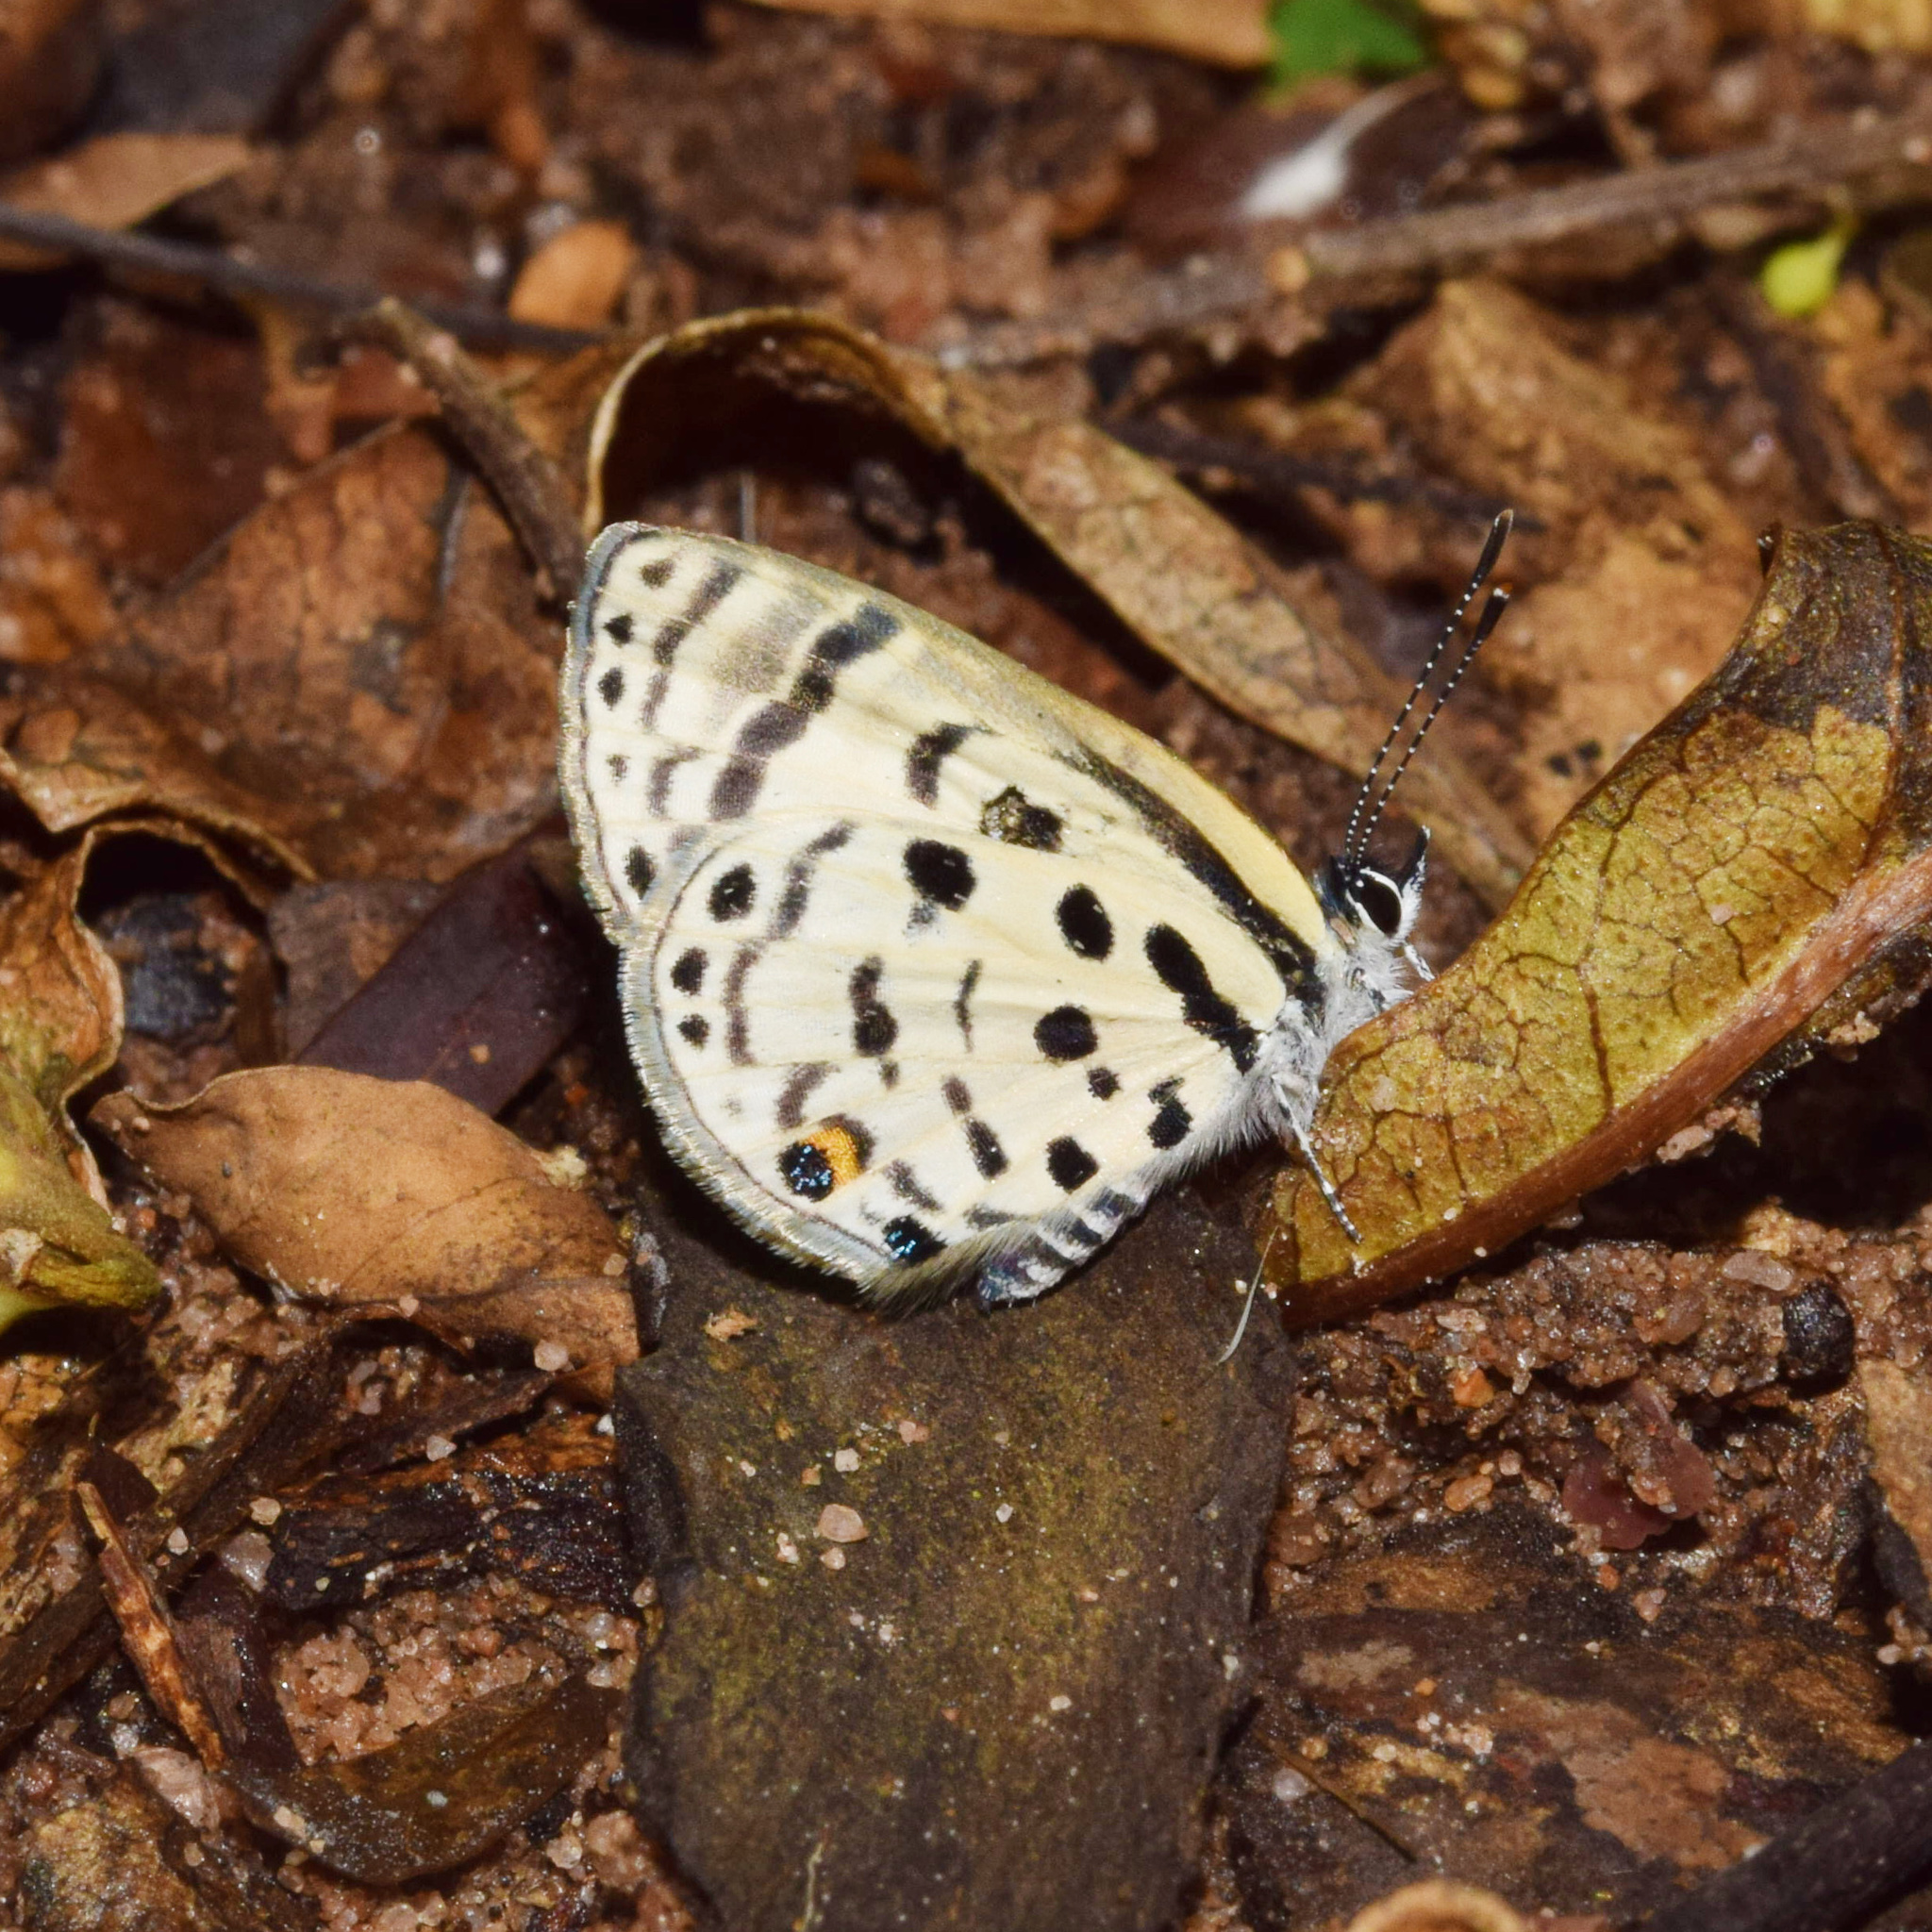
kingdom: Animalia
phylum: Arthropoda
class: Insecta
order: Lepidoptera
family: Lycaenidae
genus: Azanus
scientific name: Azanus mirza
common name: Mirza babul blue
